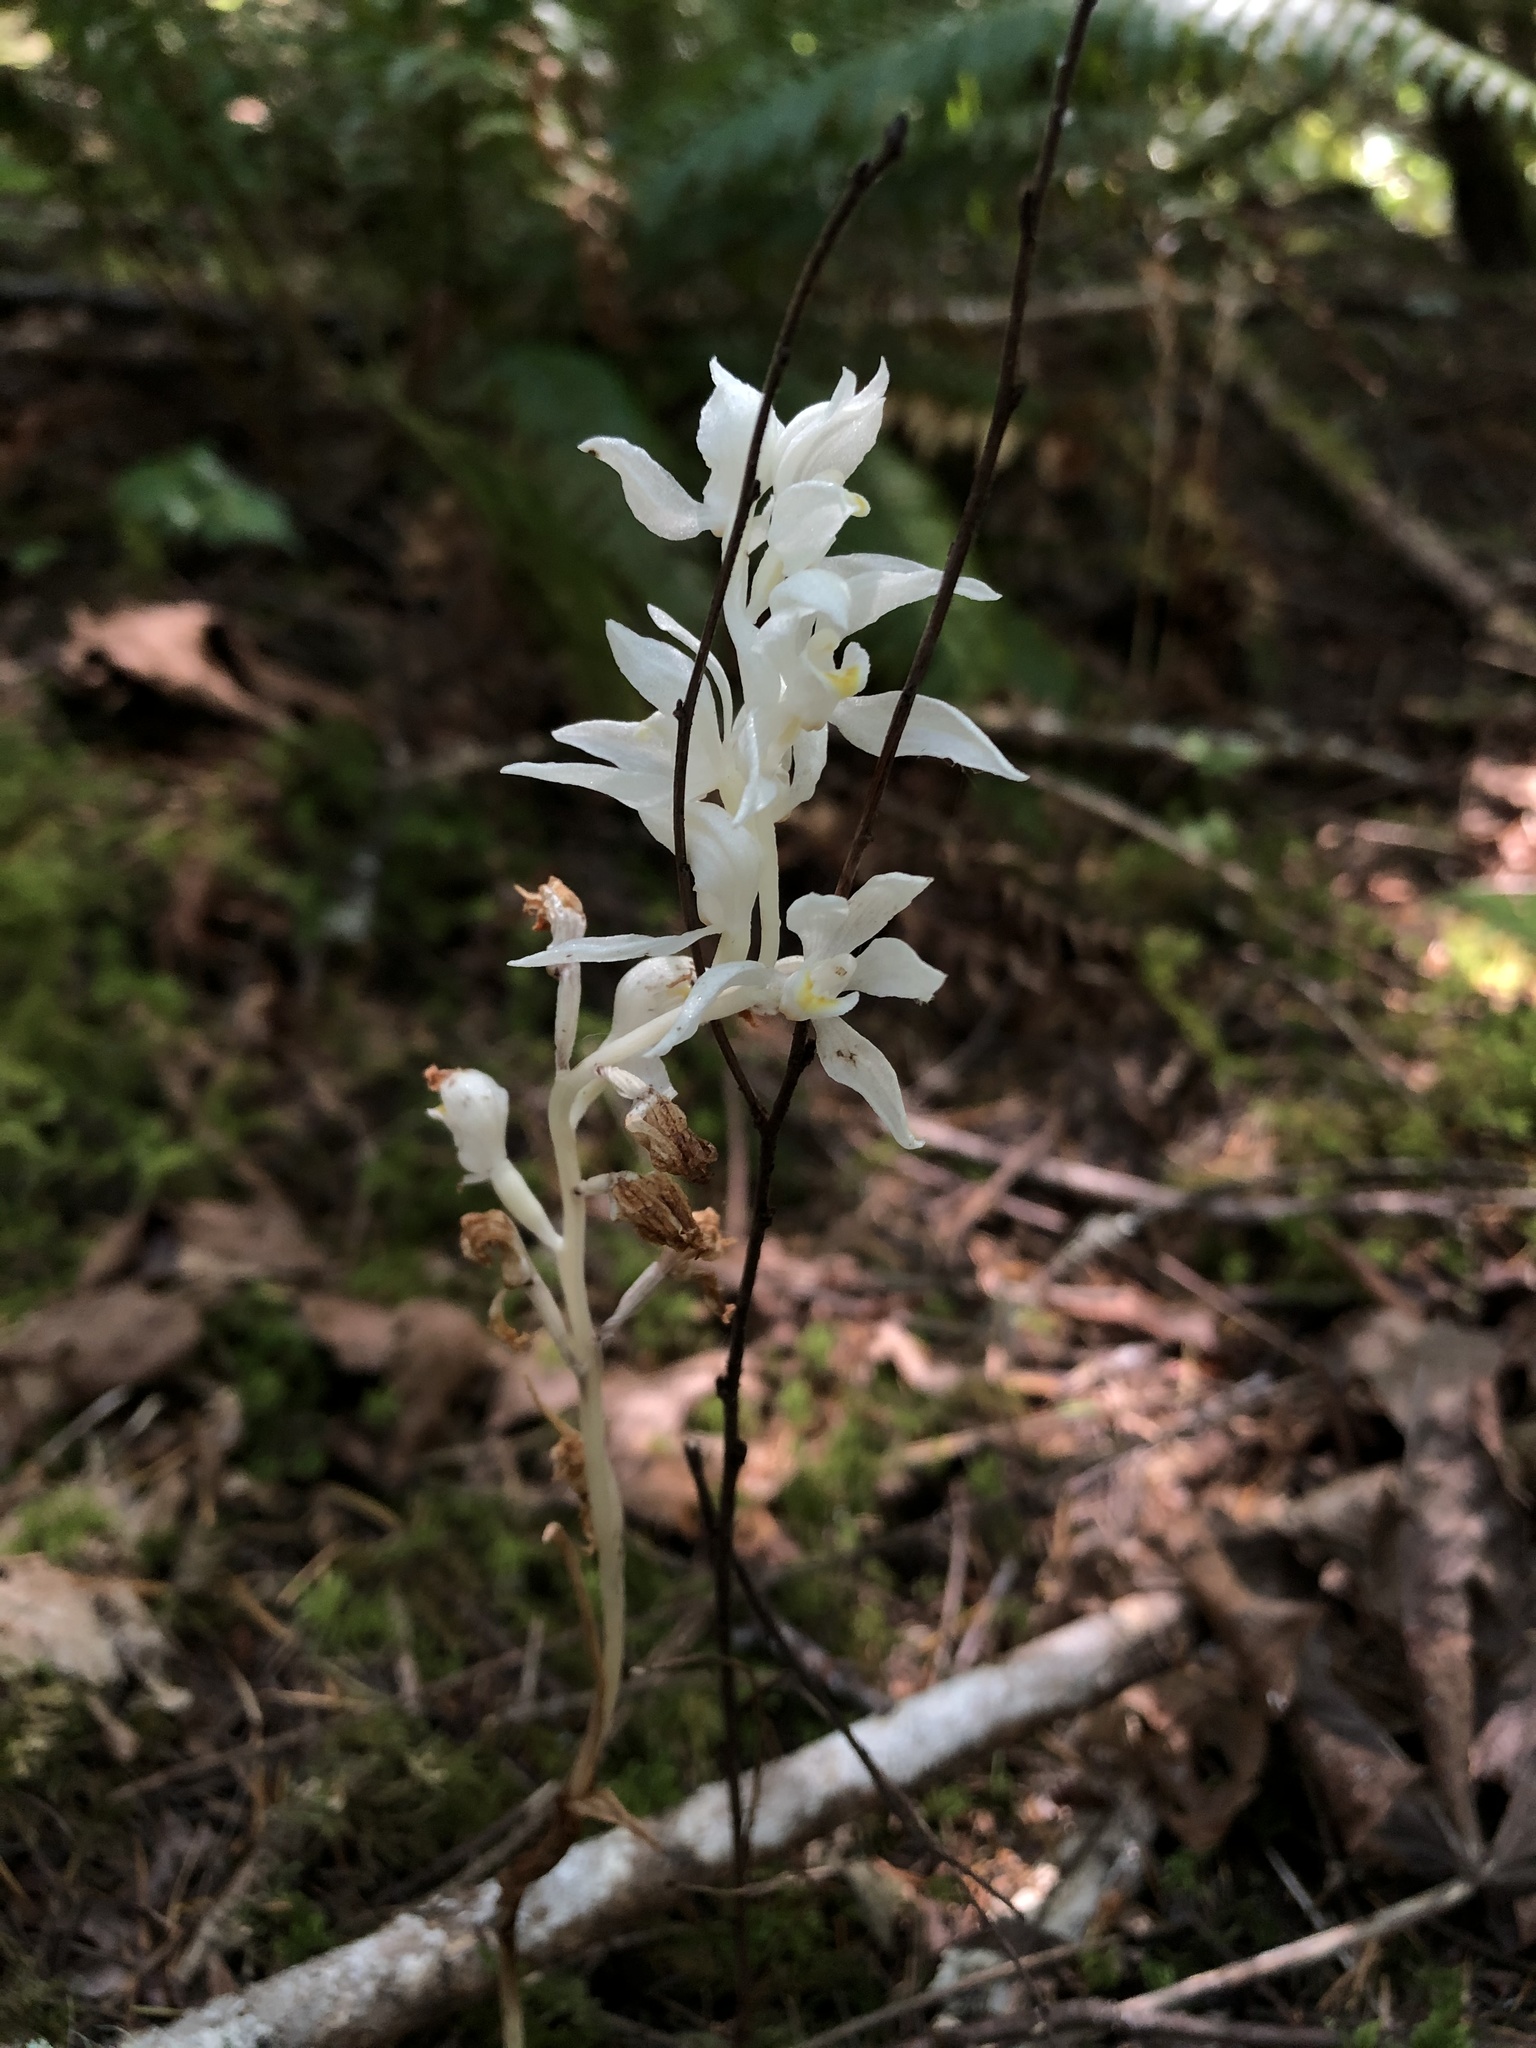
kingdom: Plantae
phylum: Tracheophyta
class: Liliopsida
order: Asparagales
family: Orchidaceae
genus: Cephalanthera
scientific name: Cephalanthera austiniae
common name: Phantom orchid
